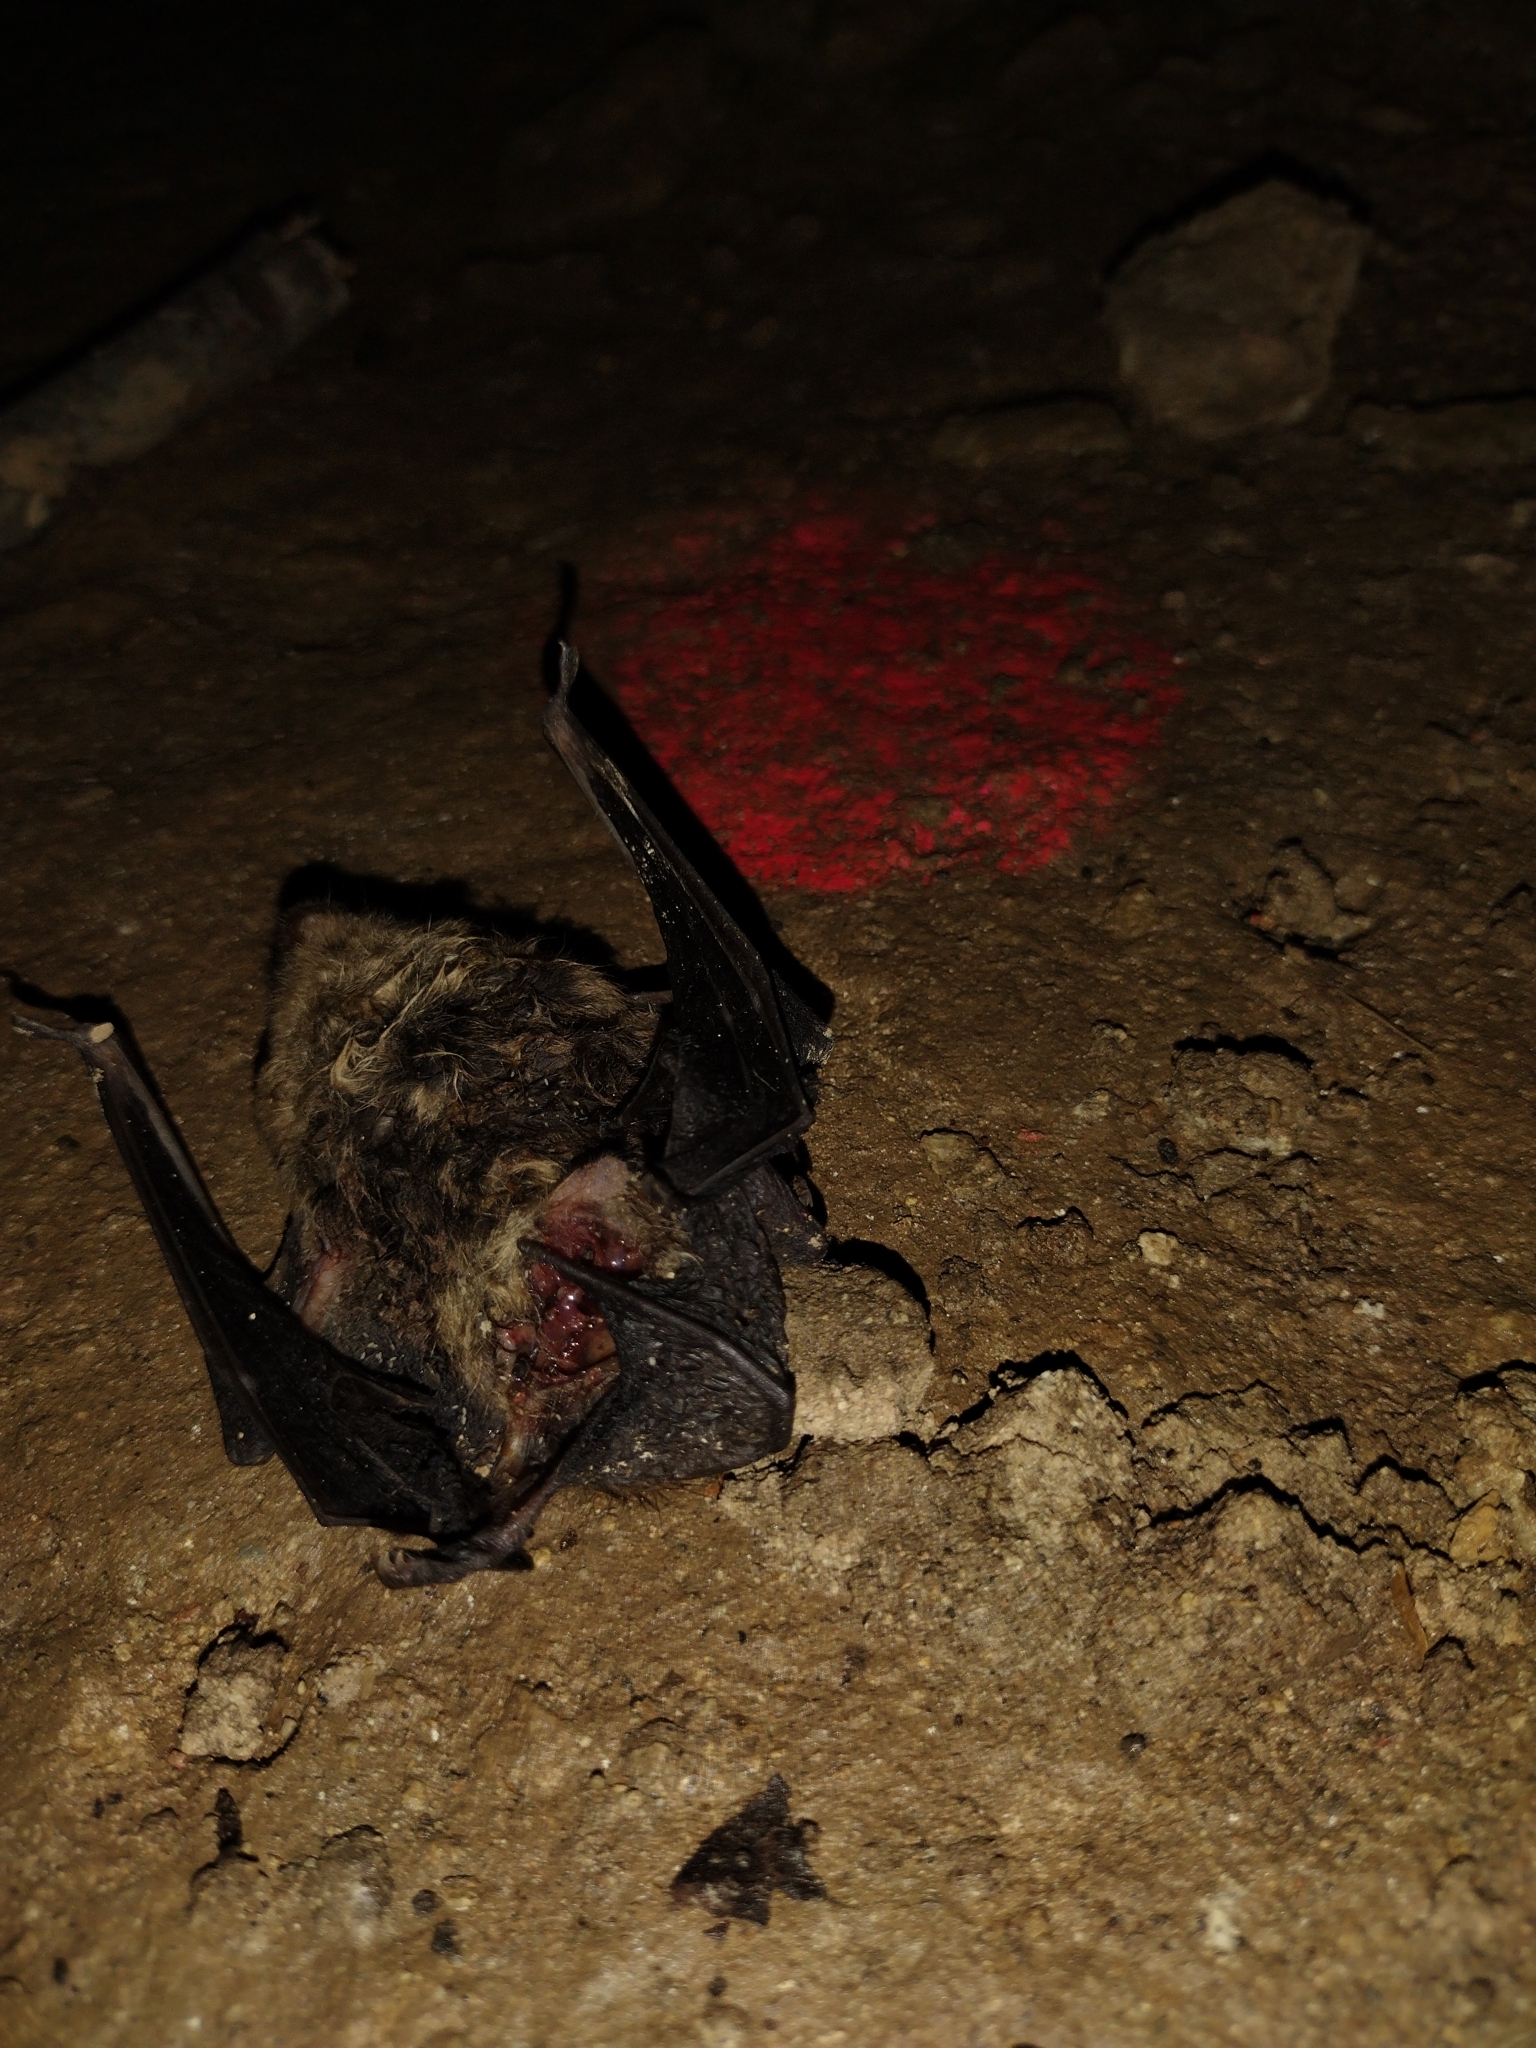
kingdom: Animalia
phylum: Chordata
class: Mammalia
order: Chiroptera
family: Vespertilionidae
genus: Eptesicus
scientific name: Eptesicus fuscus
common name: Big brown bat
